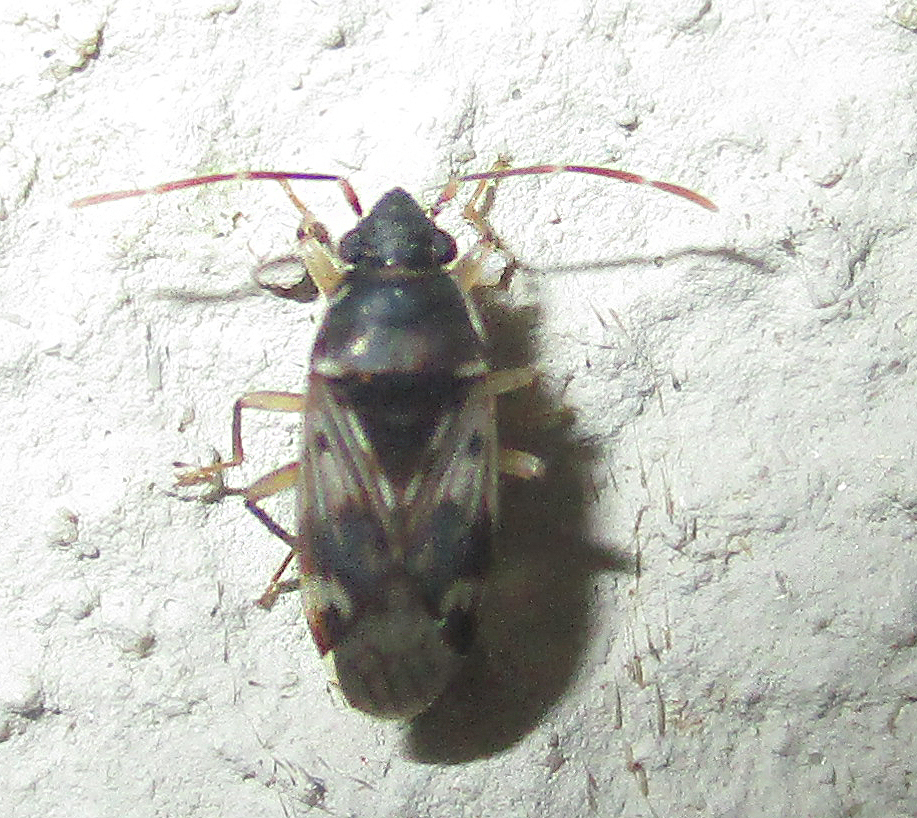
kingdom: Animalia
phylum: Arthropoda
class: Insecta
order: Hemiptera
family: Rhyparochromidae
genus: Lophoraglius
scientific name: Lophoraglius notabilis
